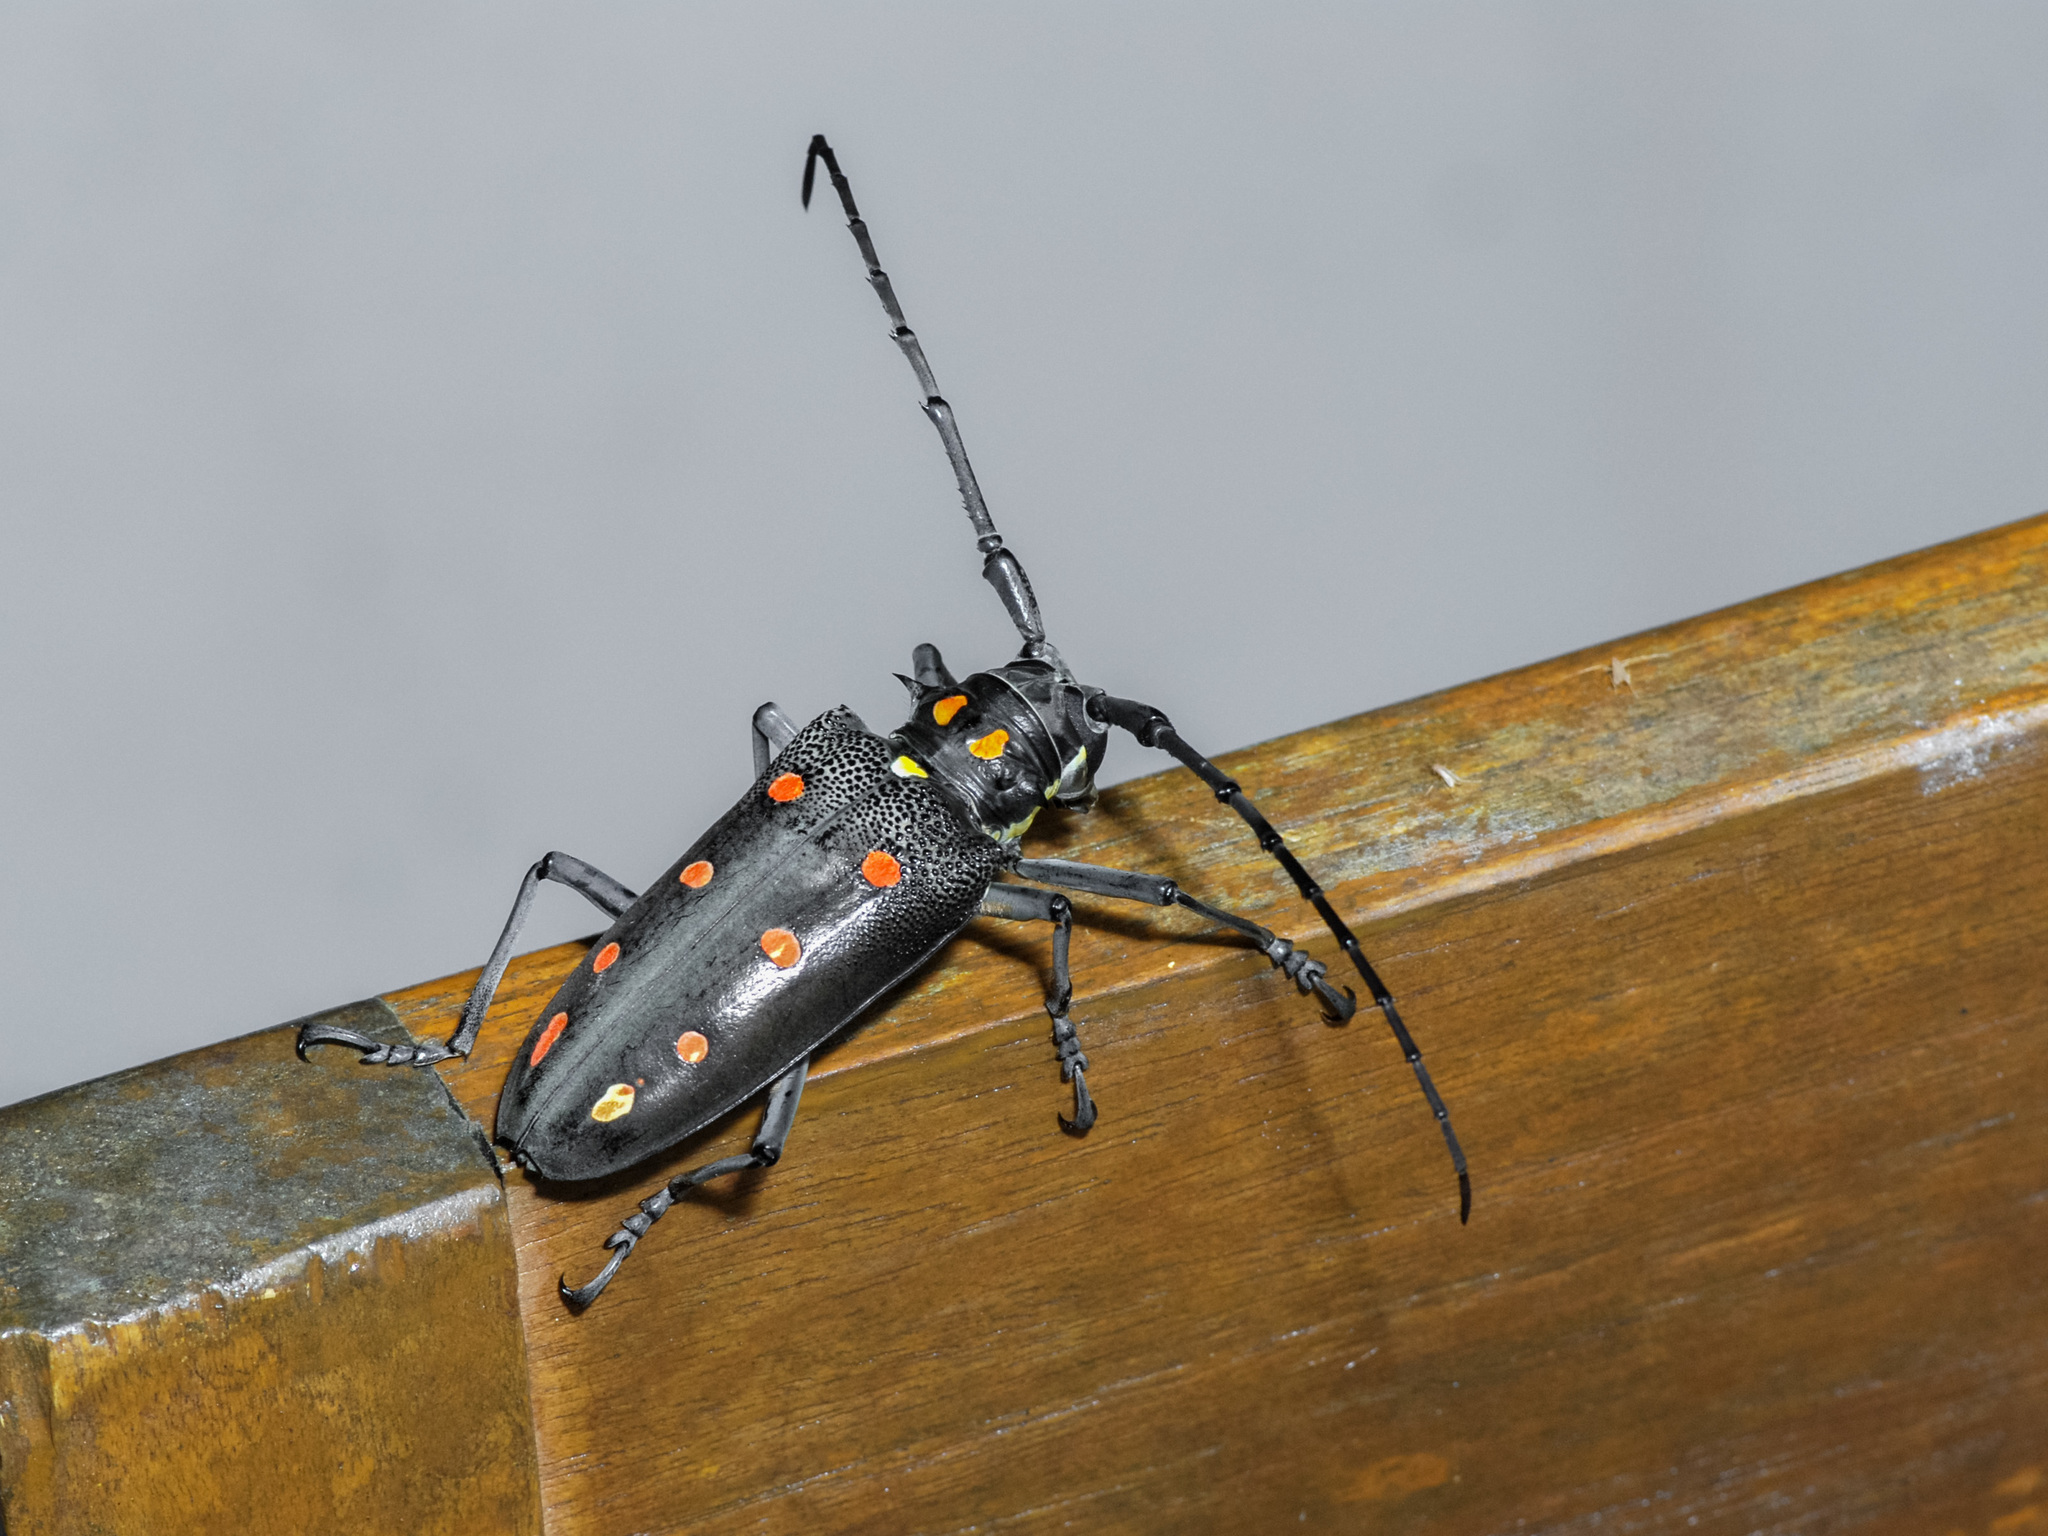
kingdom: Animalia
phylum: Arthropoda
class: Insecta
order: Coleoptera
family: Cerambycidae
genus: Batocera
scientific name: Batocera parryi
